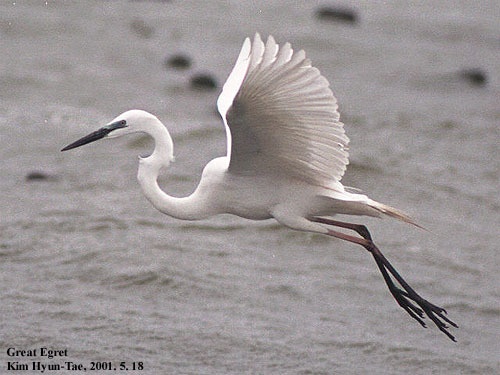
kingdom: Animalia
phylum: Chordata
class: Aves
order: Pelecaniformes
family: Ardeidae
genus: Ardea
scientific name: Ardea modesta
